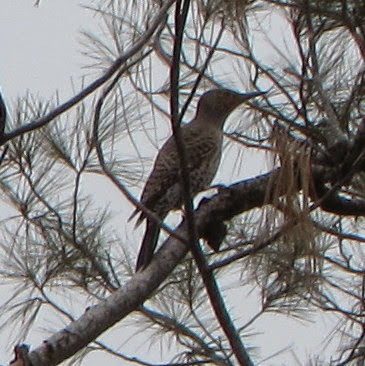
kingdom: Animalia
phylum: Chordata
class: Aves
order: Piciformes
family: Picidae
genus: Colaptes
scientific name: Colaptes auratus
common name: Northern flicker
